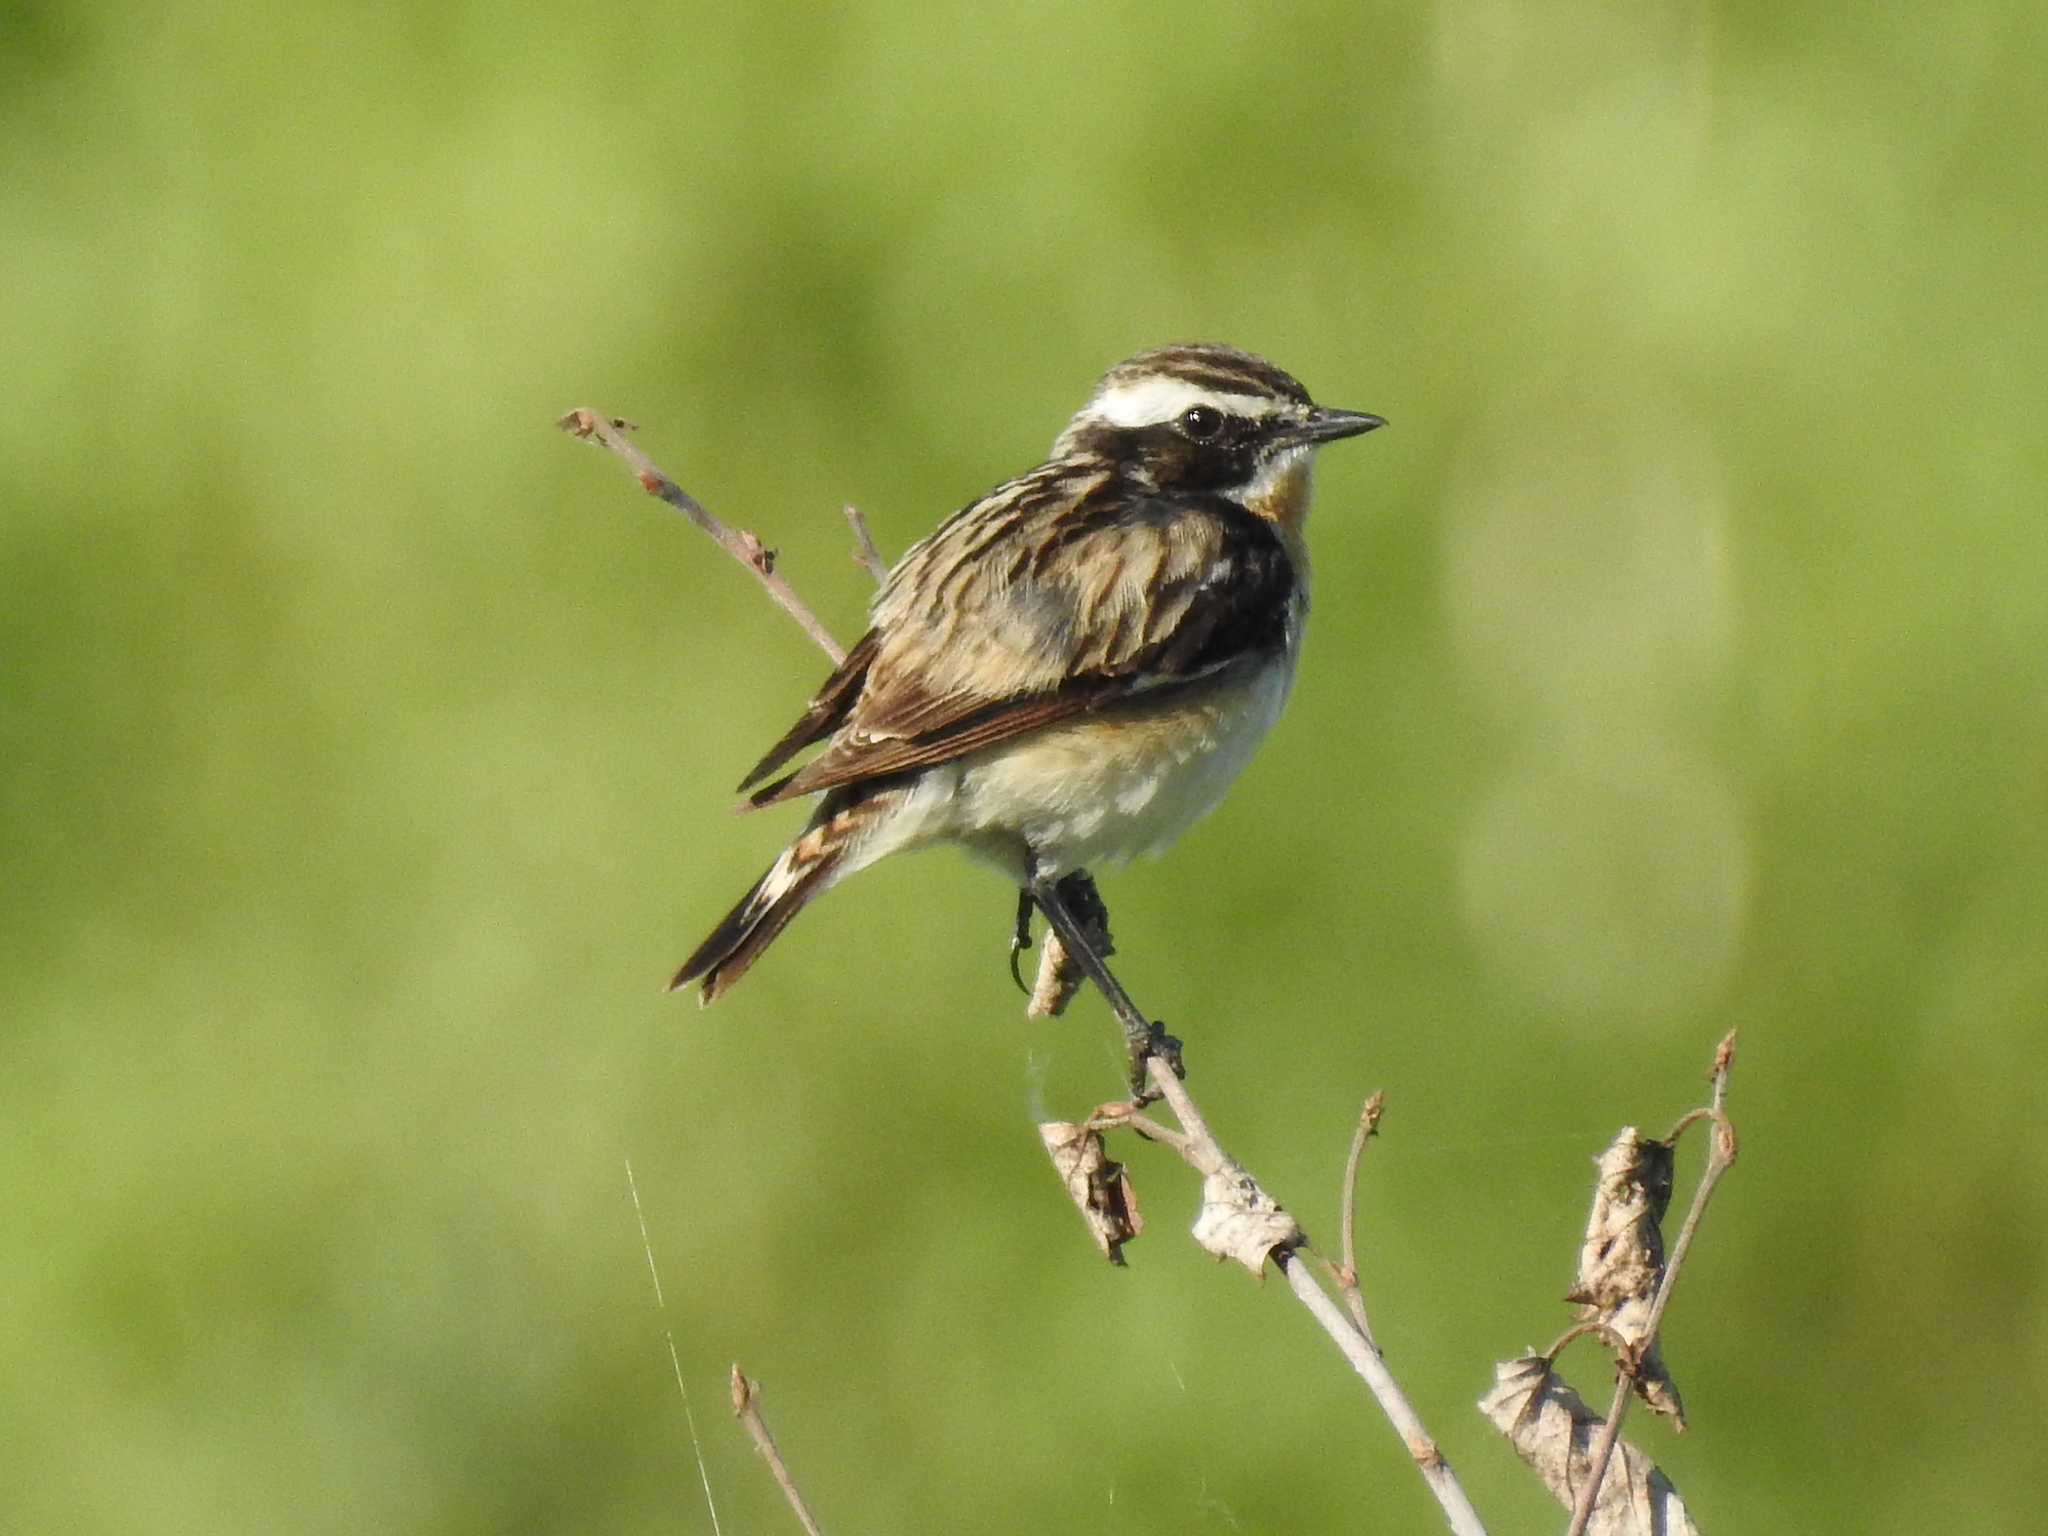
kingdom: Animalia
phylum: Chordata
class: Aves
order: Passeriformes
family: Muscicapidae
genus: Saxicola
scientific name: Saxicola rubetra
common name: Whinchat
